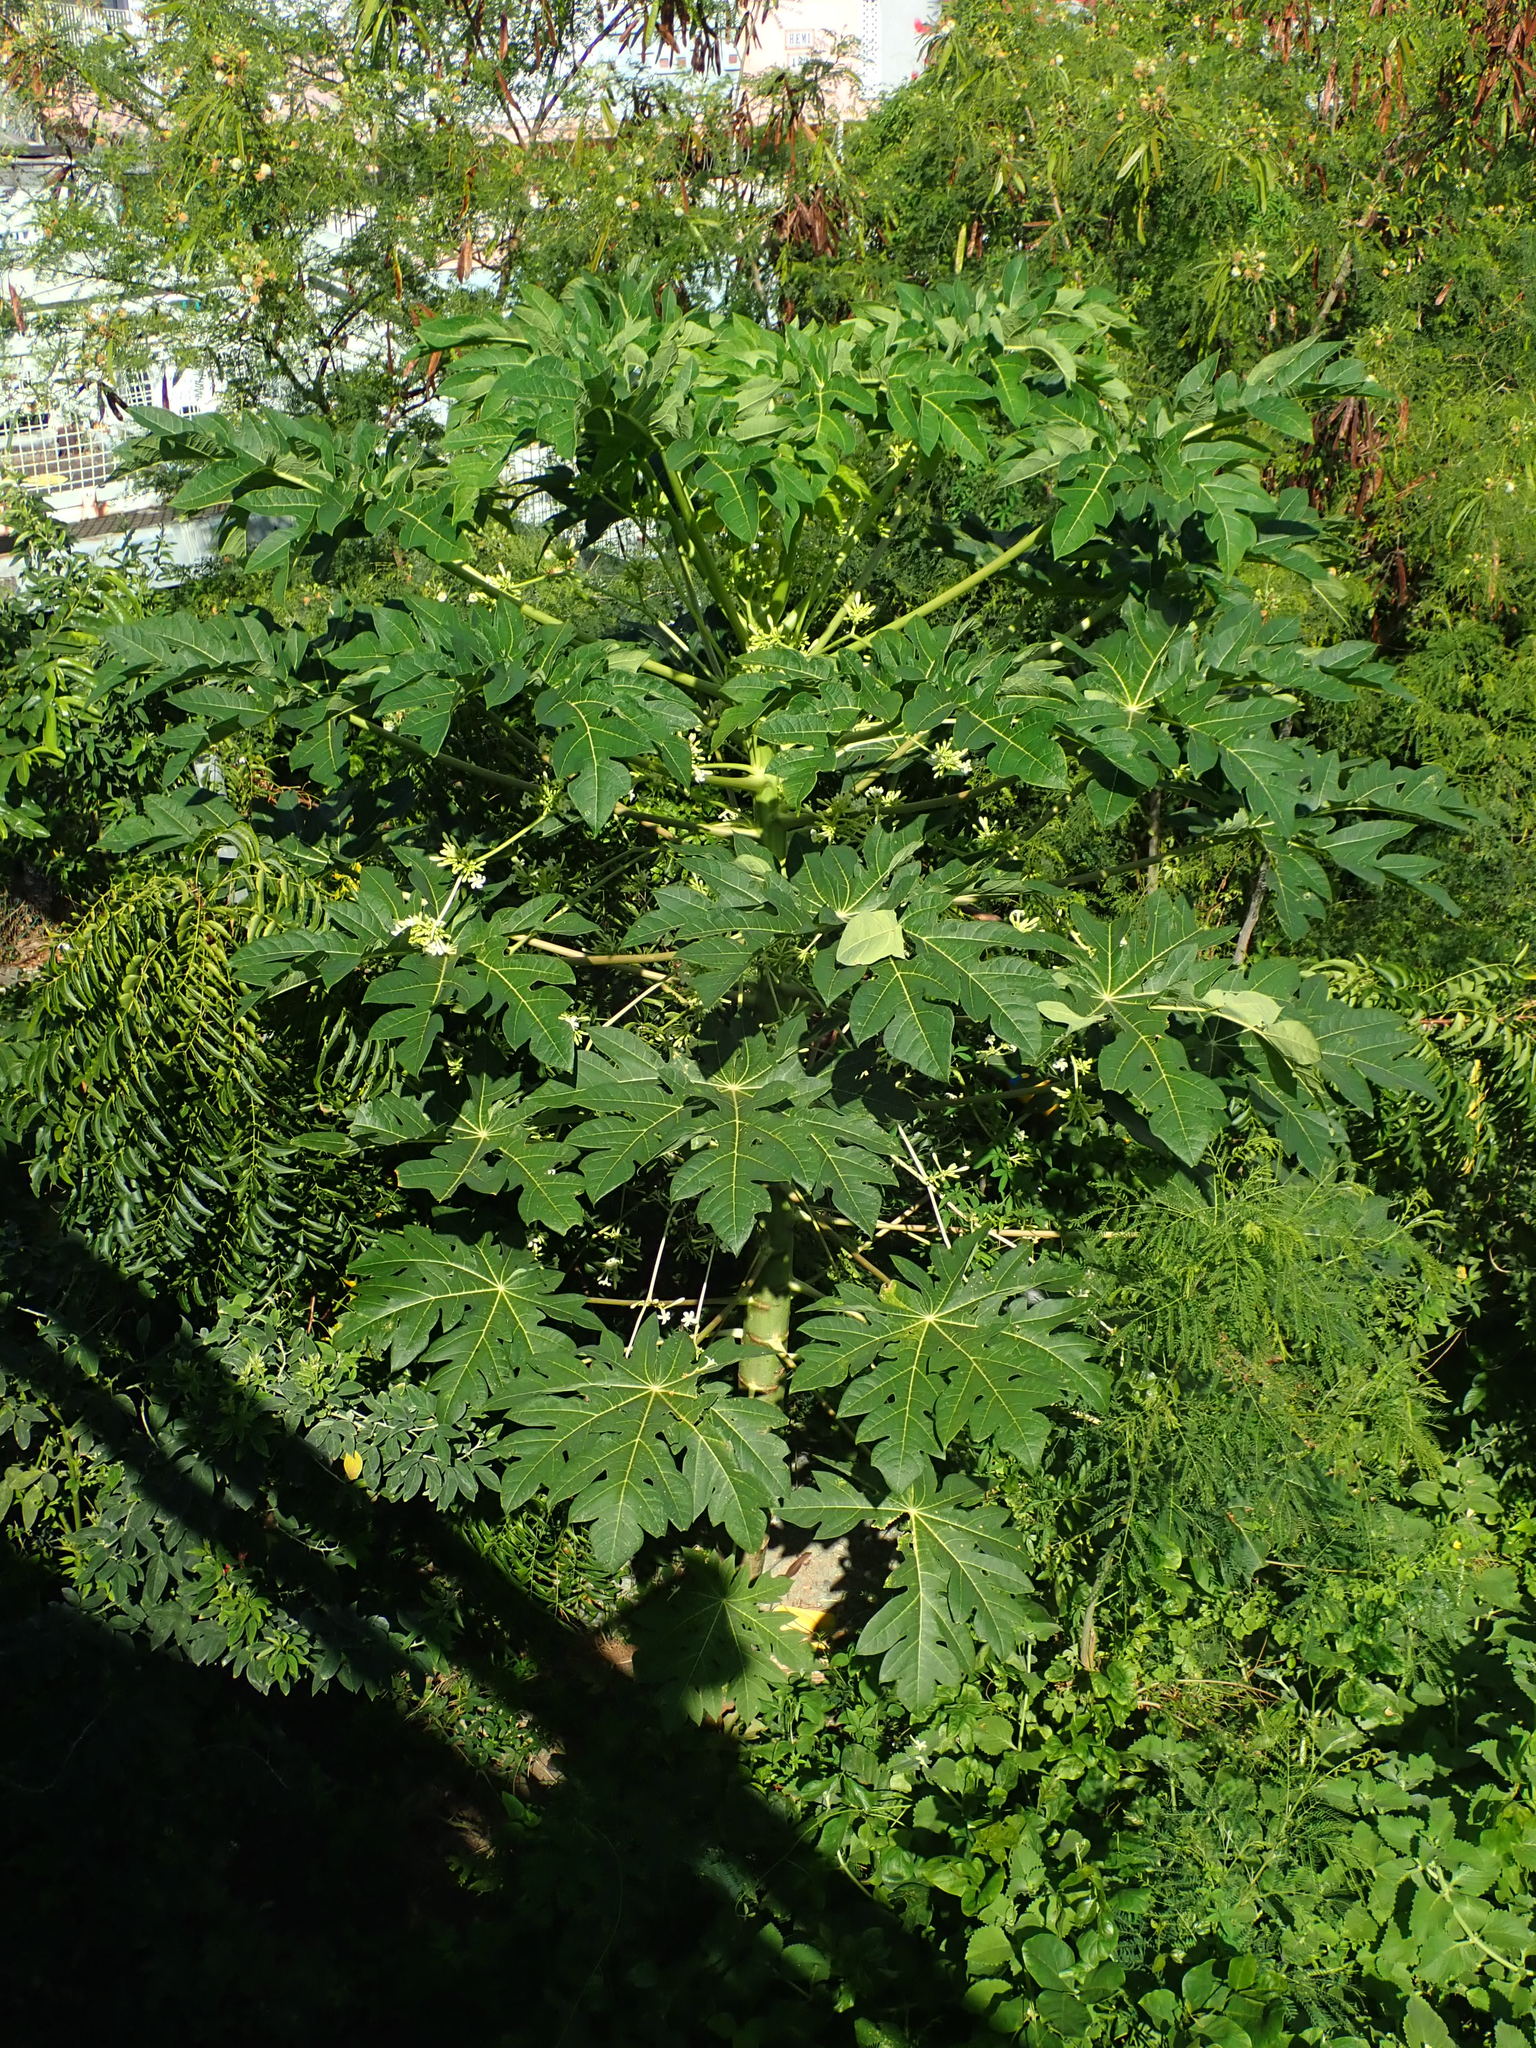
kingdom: Plantae
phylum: Tracheophyta
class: Magnoliopsida
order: Brassicales
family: Caricaceae
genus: Carica
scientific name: Carica papaya
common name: Papaya
